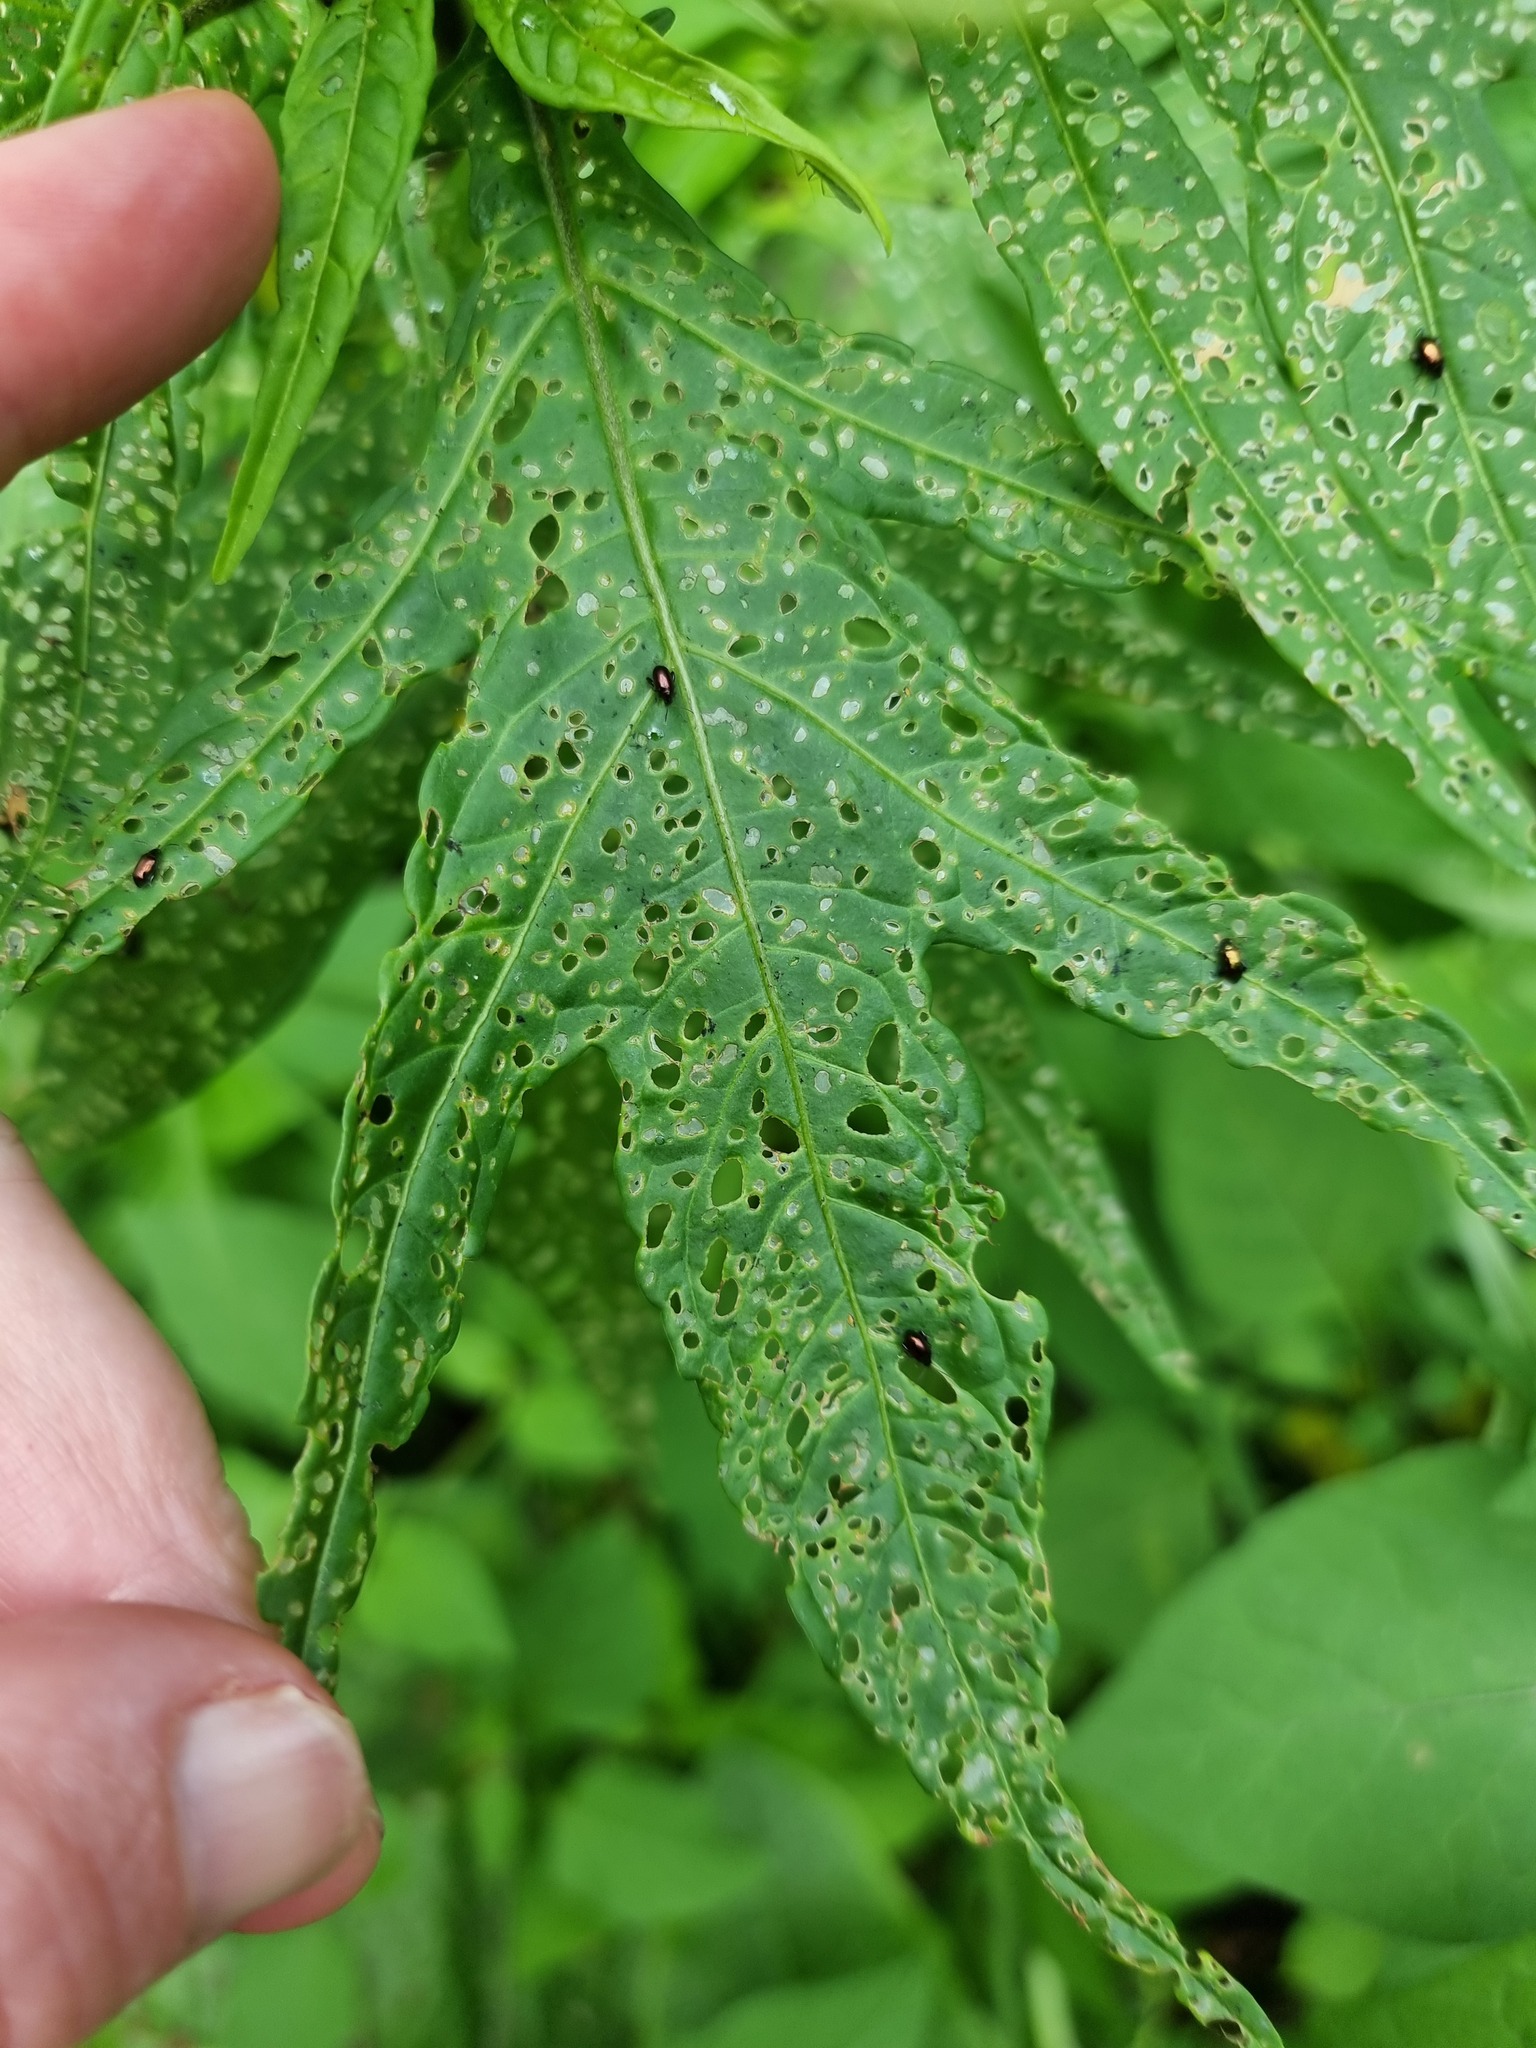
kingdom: Animalia
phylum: Arthropoda
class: Insecta
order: Coleoptera
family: Chrysomelidae
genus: Psylliodes
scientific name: Psylliodes brettinghami
